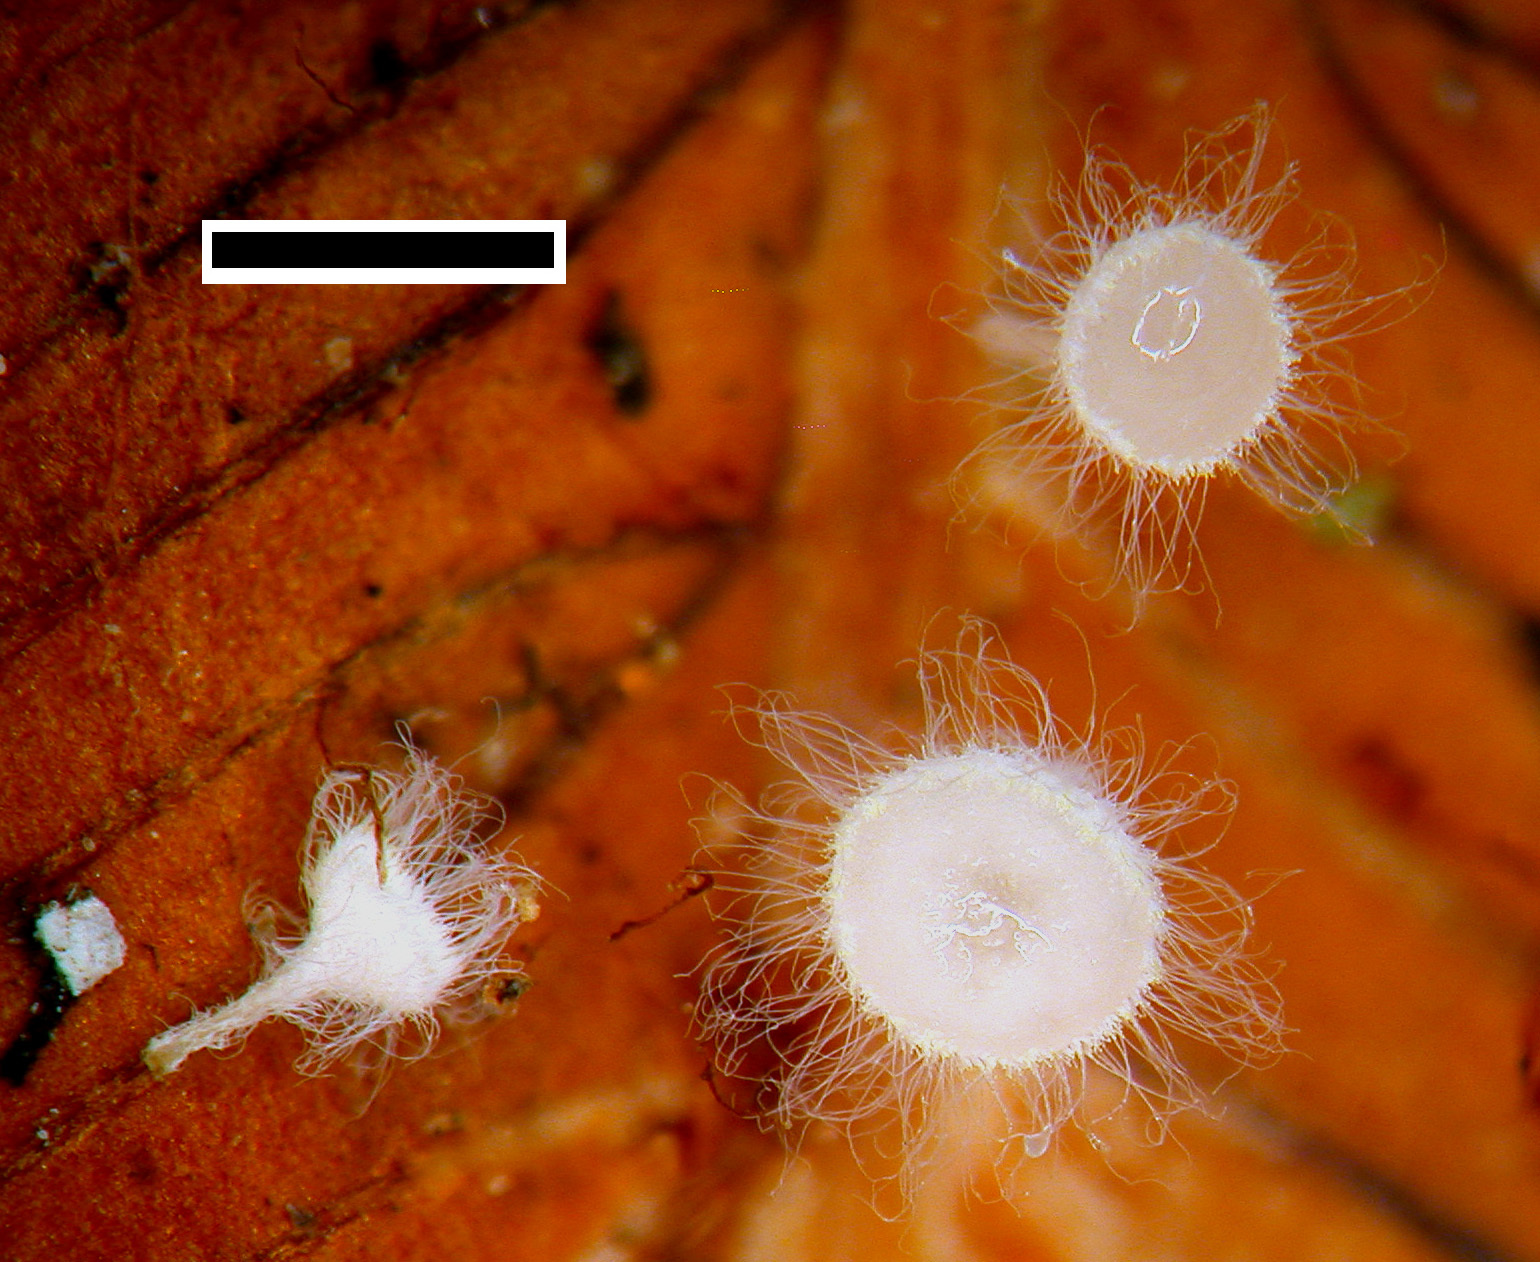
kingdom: Fungi
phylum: Ascomycota
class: Leotiomycetes
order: Helotiales
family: Lachnaceae
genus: Lachnum
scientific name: Lachnum
